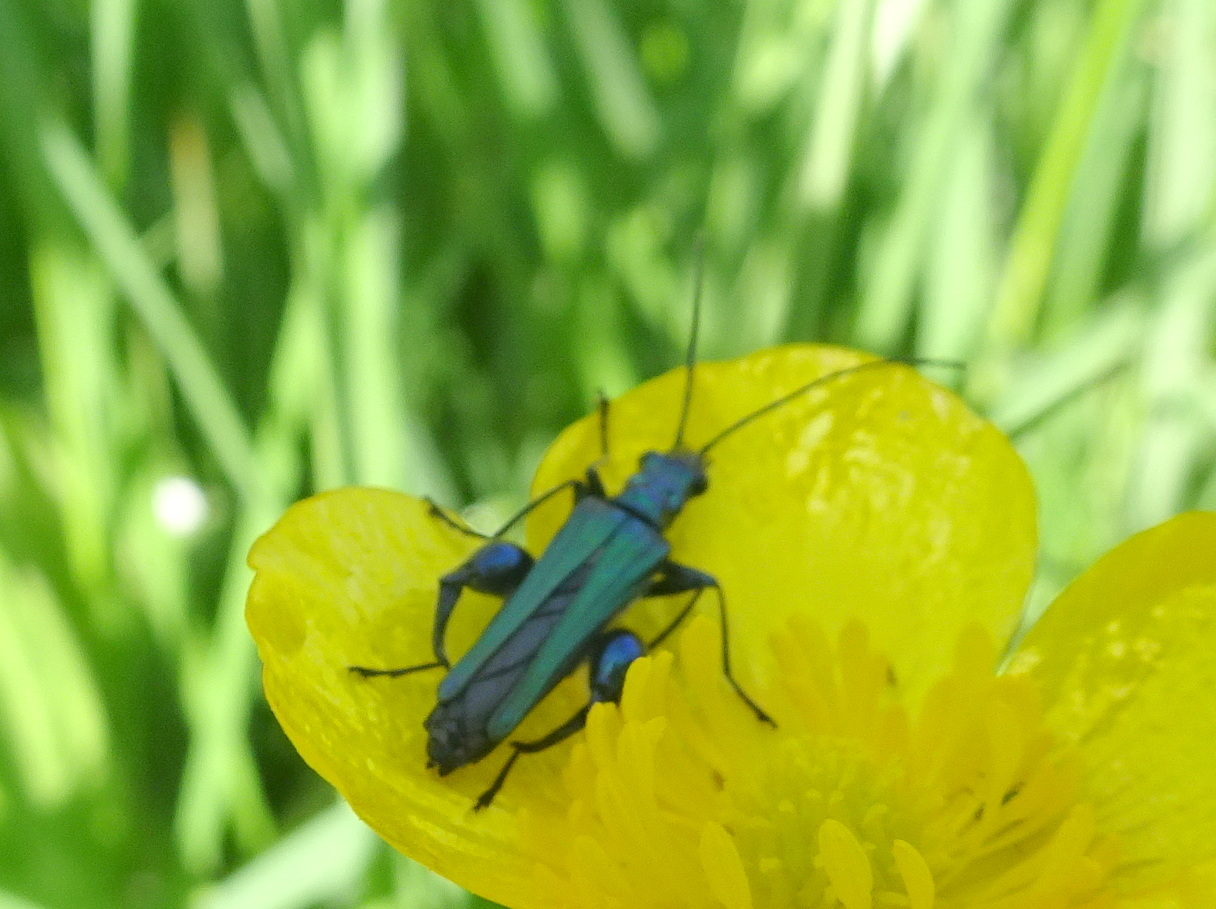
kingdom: Animalia
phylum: Arthropoda
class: Insecta
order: Coleoptera
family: Oedemeridae
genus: Oedemera
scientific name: Oedemera nobilis
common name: Swollen-thighed beetle
